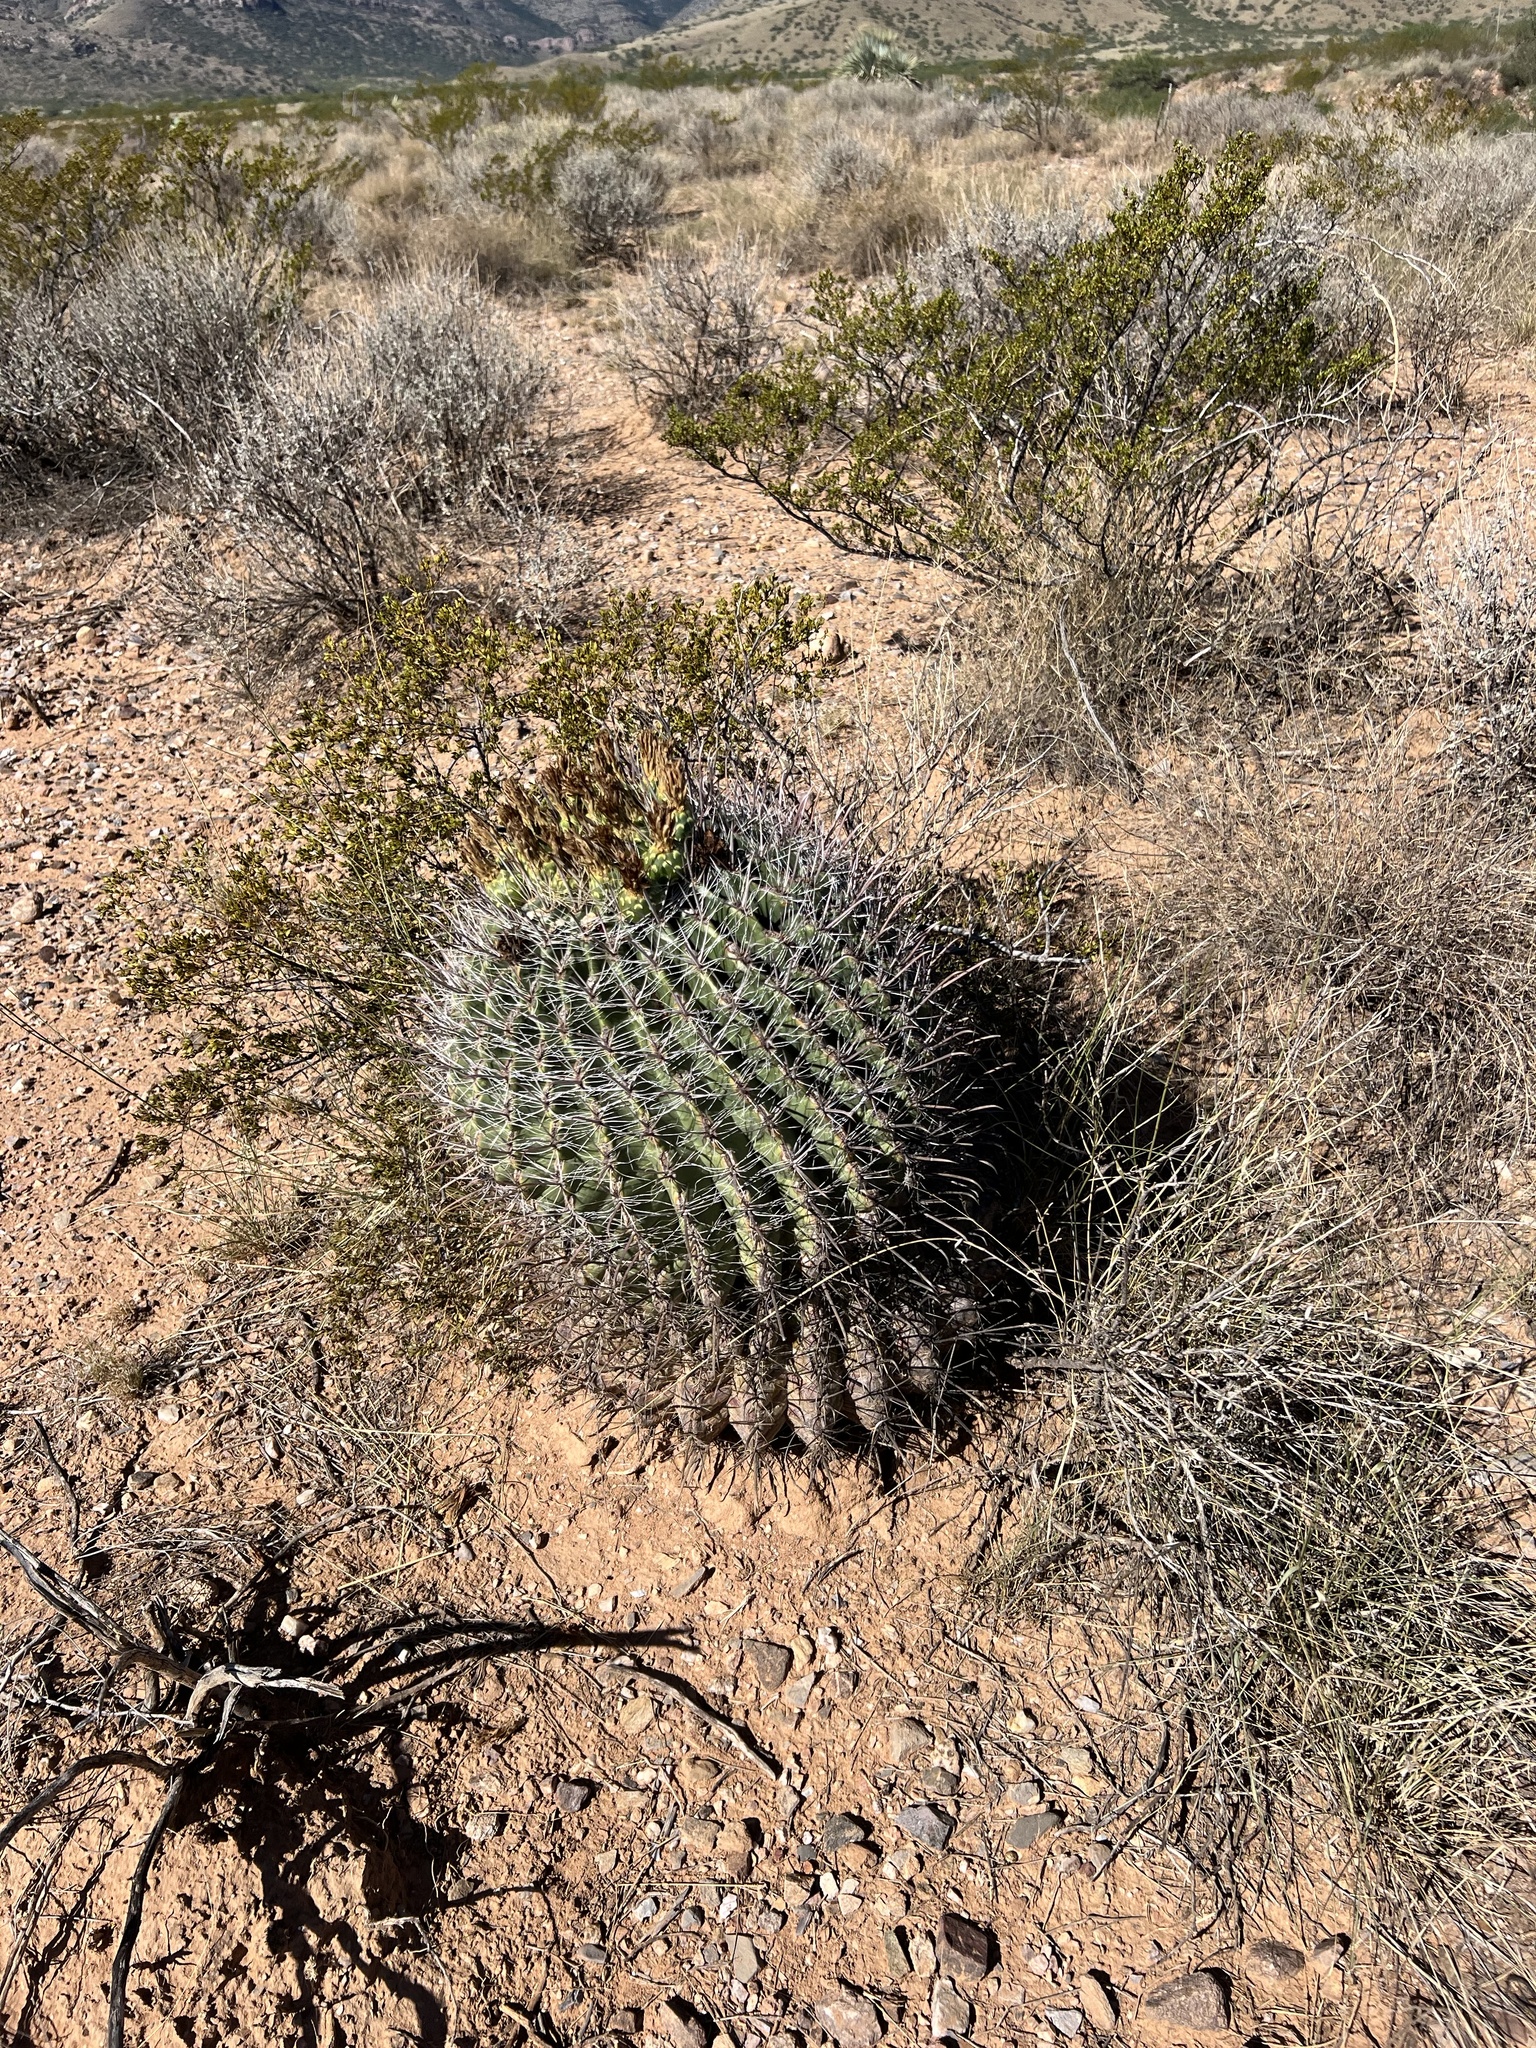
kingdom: Plantae
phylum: Tracheophyta
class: Magnoliopsida
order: Caryophyllales
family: Cactaceae
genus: Ferocactus
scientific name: Ferocactus wislizeni
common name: Candy barrel cactus
